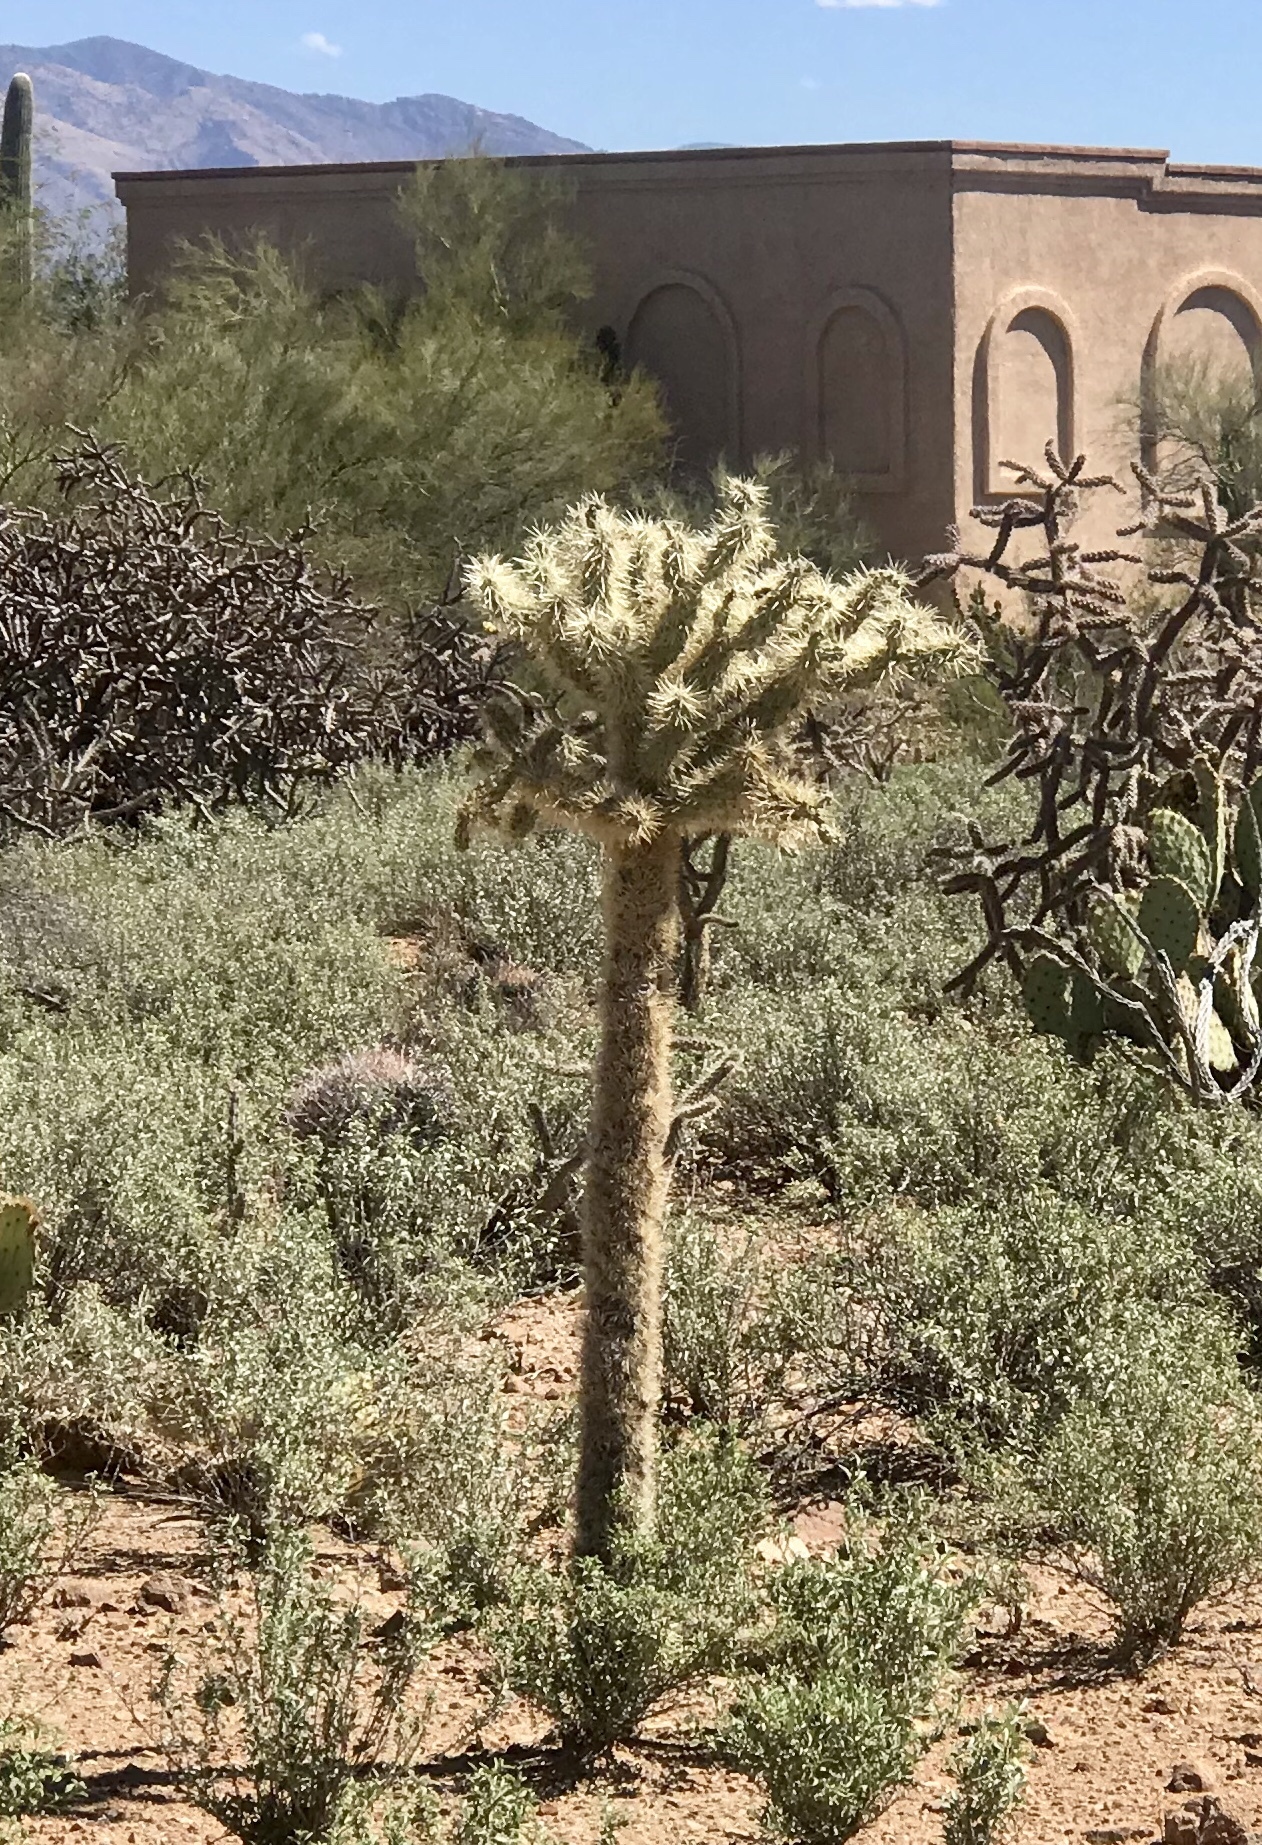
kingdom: Plantae
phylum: Tracheophyta
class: Magnoliopsida
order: Caryophyllales
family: Cactaceae
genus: Cylindropuntia
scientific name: Cylindropuntia fulgida
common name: Jumping cholla
